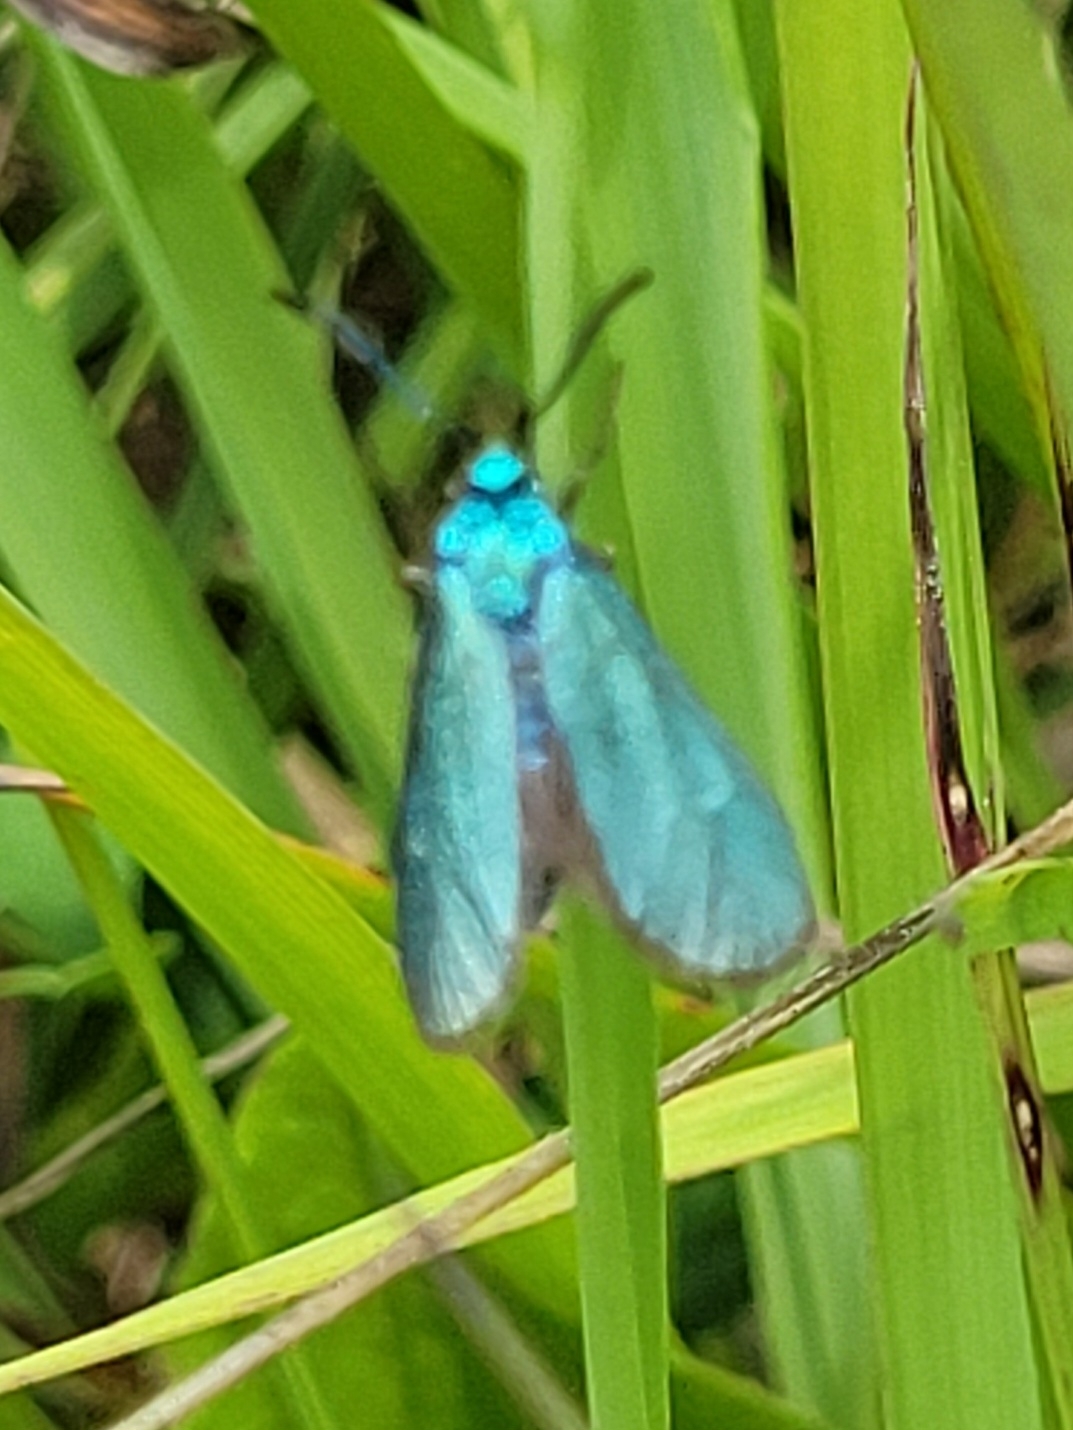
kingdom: Animalia
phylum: Arthropoda
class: Insecta
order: Lepidoptera
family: Zygaenidae
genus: Adscita
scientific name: Adscita statices
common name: Forester
